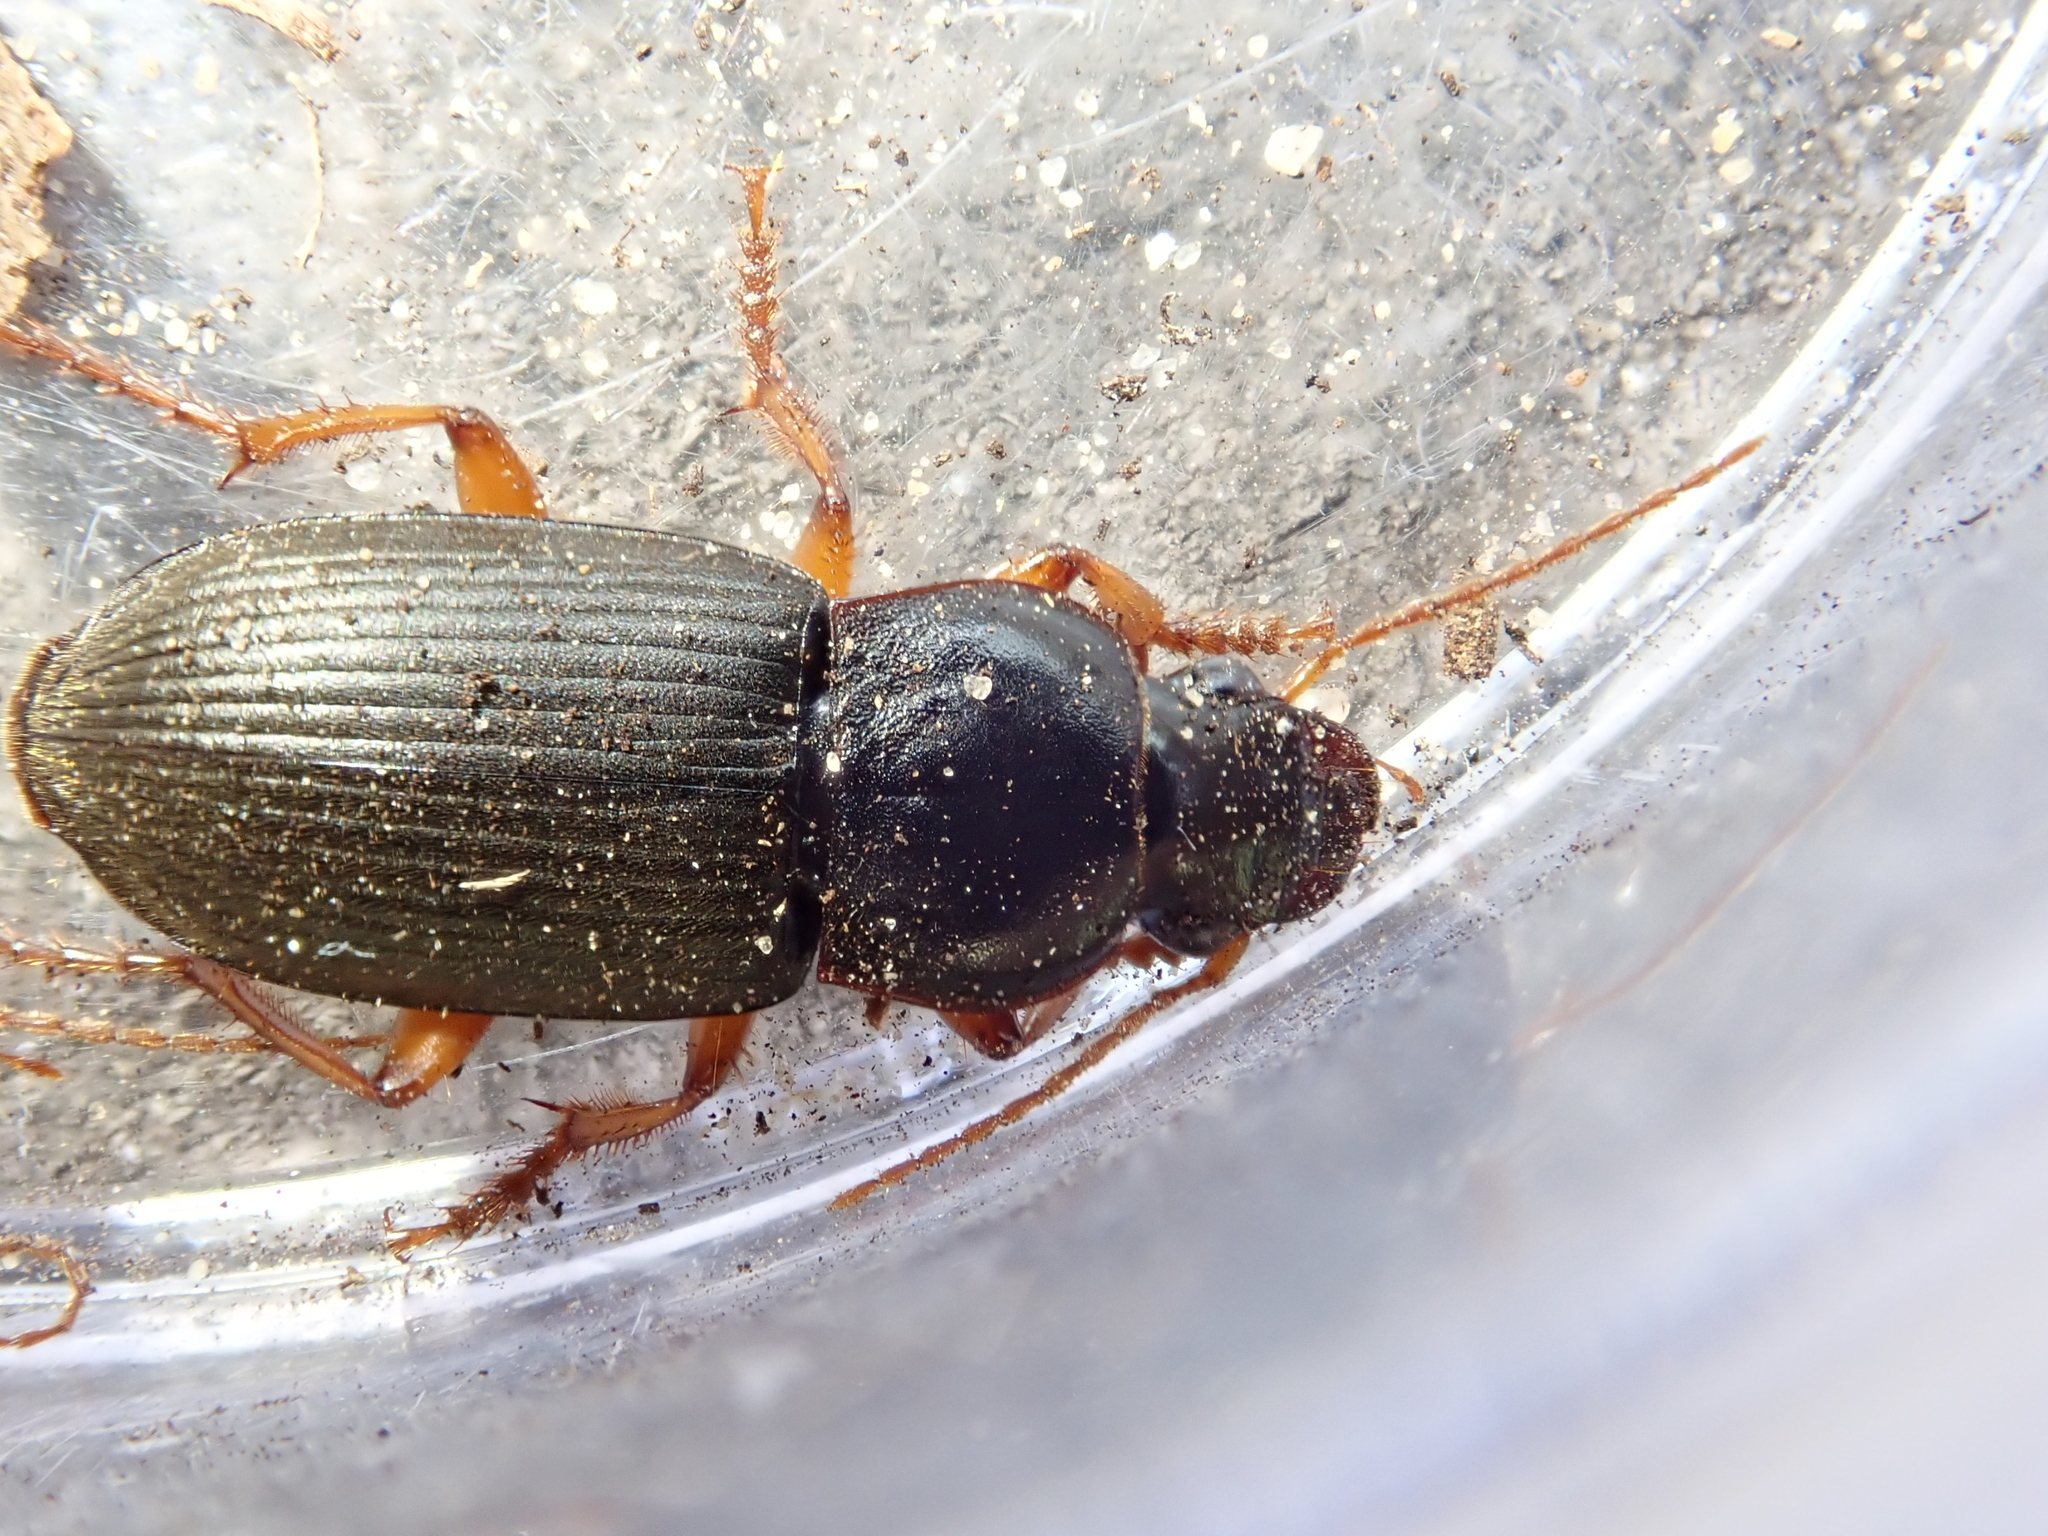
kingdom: Animalia
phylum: Arthropoda
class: Insecta
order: Coleoptera
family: Carabidae
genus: Harpalus
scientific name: Harpalus rufipes
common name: Strawberry harp ground beetle
